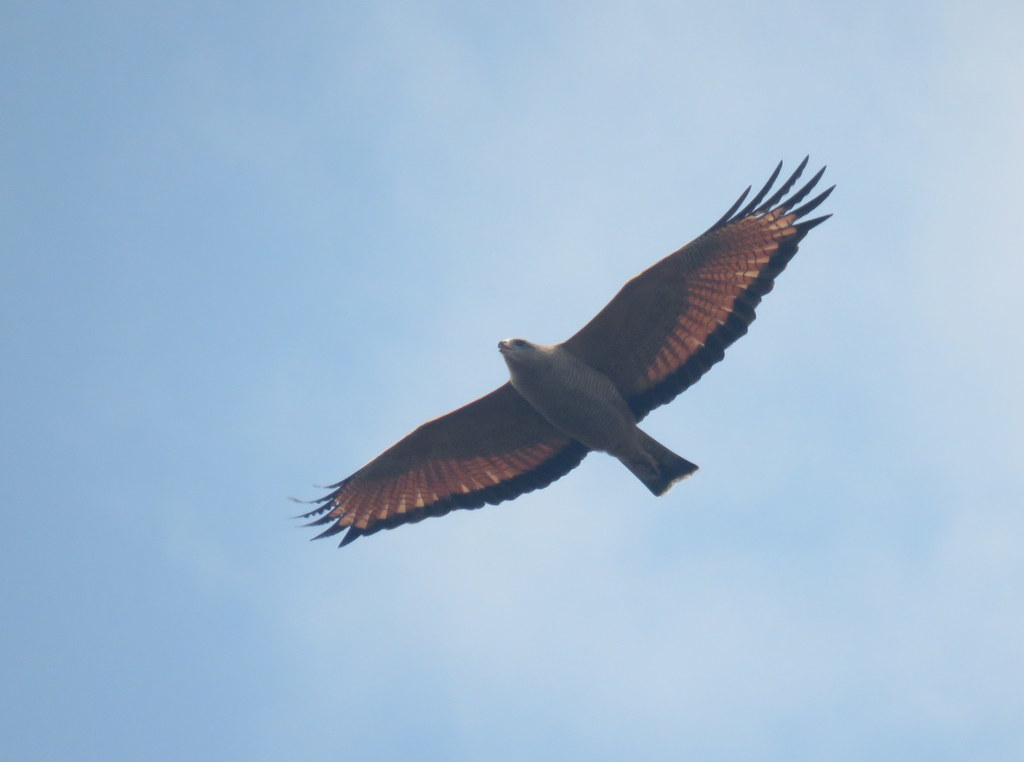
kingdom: Animalia
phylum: Chordata
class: Aves
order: Accipitriformes
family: Accipitridae
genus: Buteogallus
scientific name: Buteogallus meridionalis
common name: Savanna hawk
